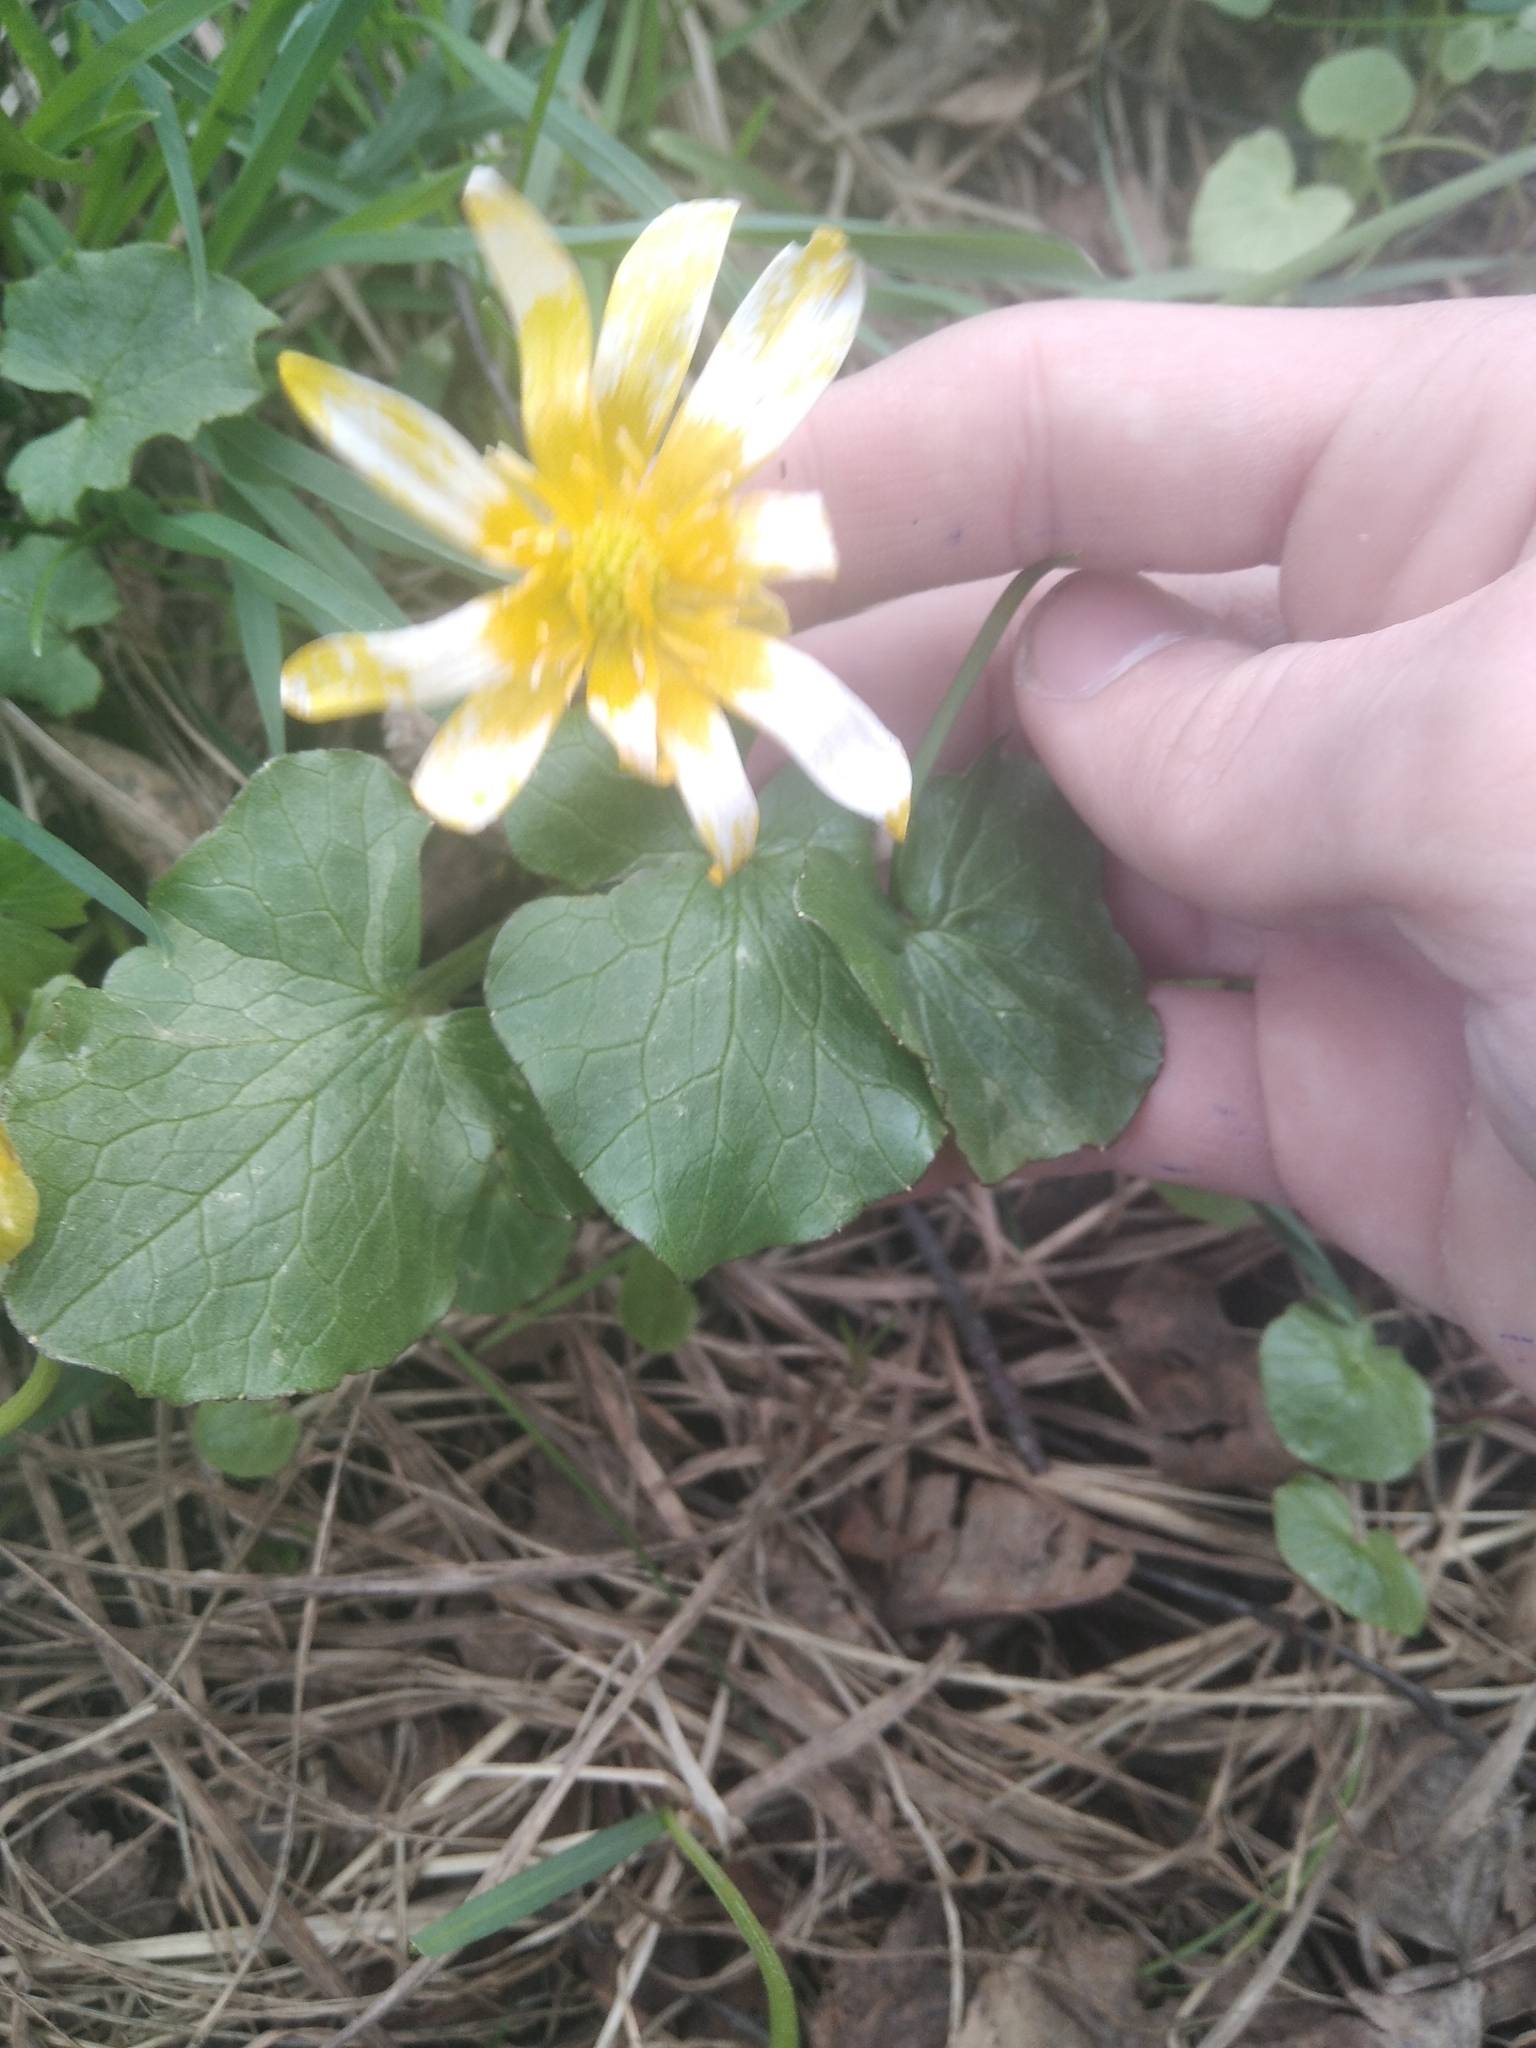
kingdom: Plantae
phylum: Tracheophyta
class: Magnoliopsida
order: Ranunculales
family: Ranunculaceae
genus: Ficaria
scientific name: Ficaria verna
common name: Lesser celandine
